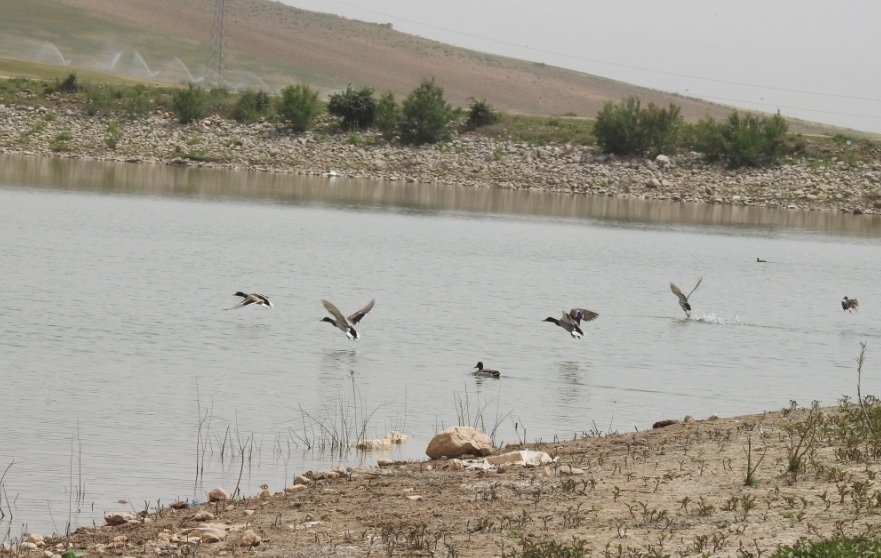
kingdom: Animalia
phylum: Chordata
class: Aves
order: Anseriformes
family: Anatidae
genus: Anas
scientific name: Anas platyrhynchos
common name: Mallard
